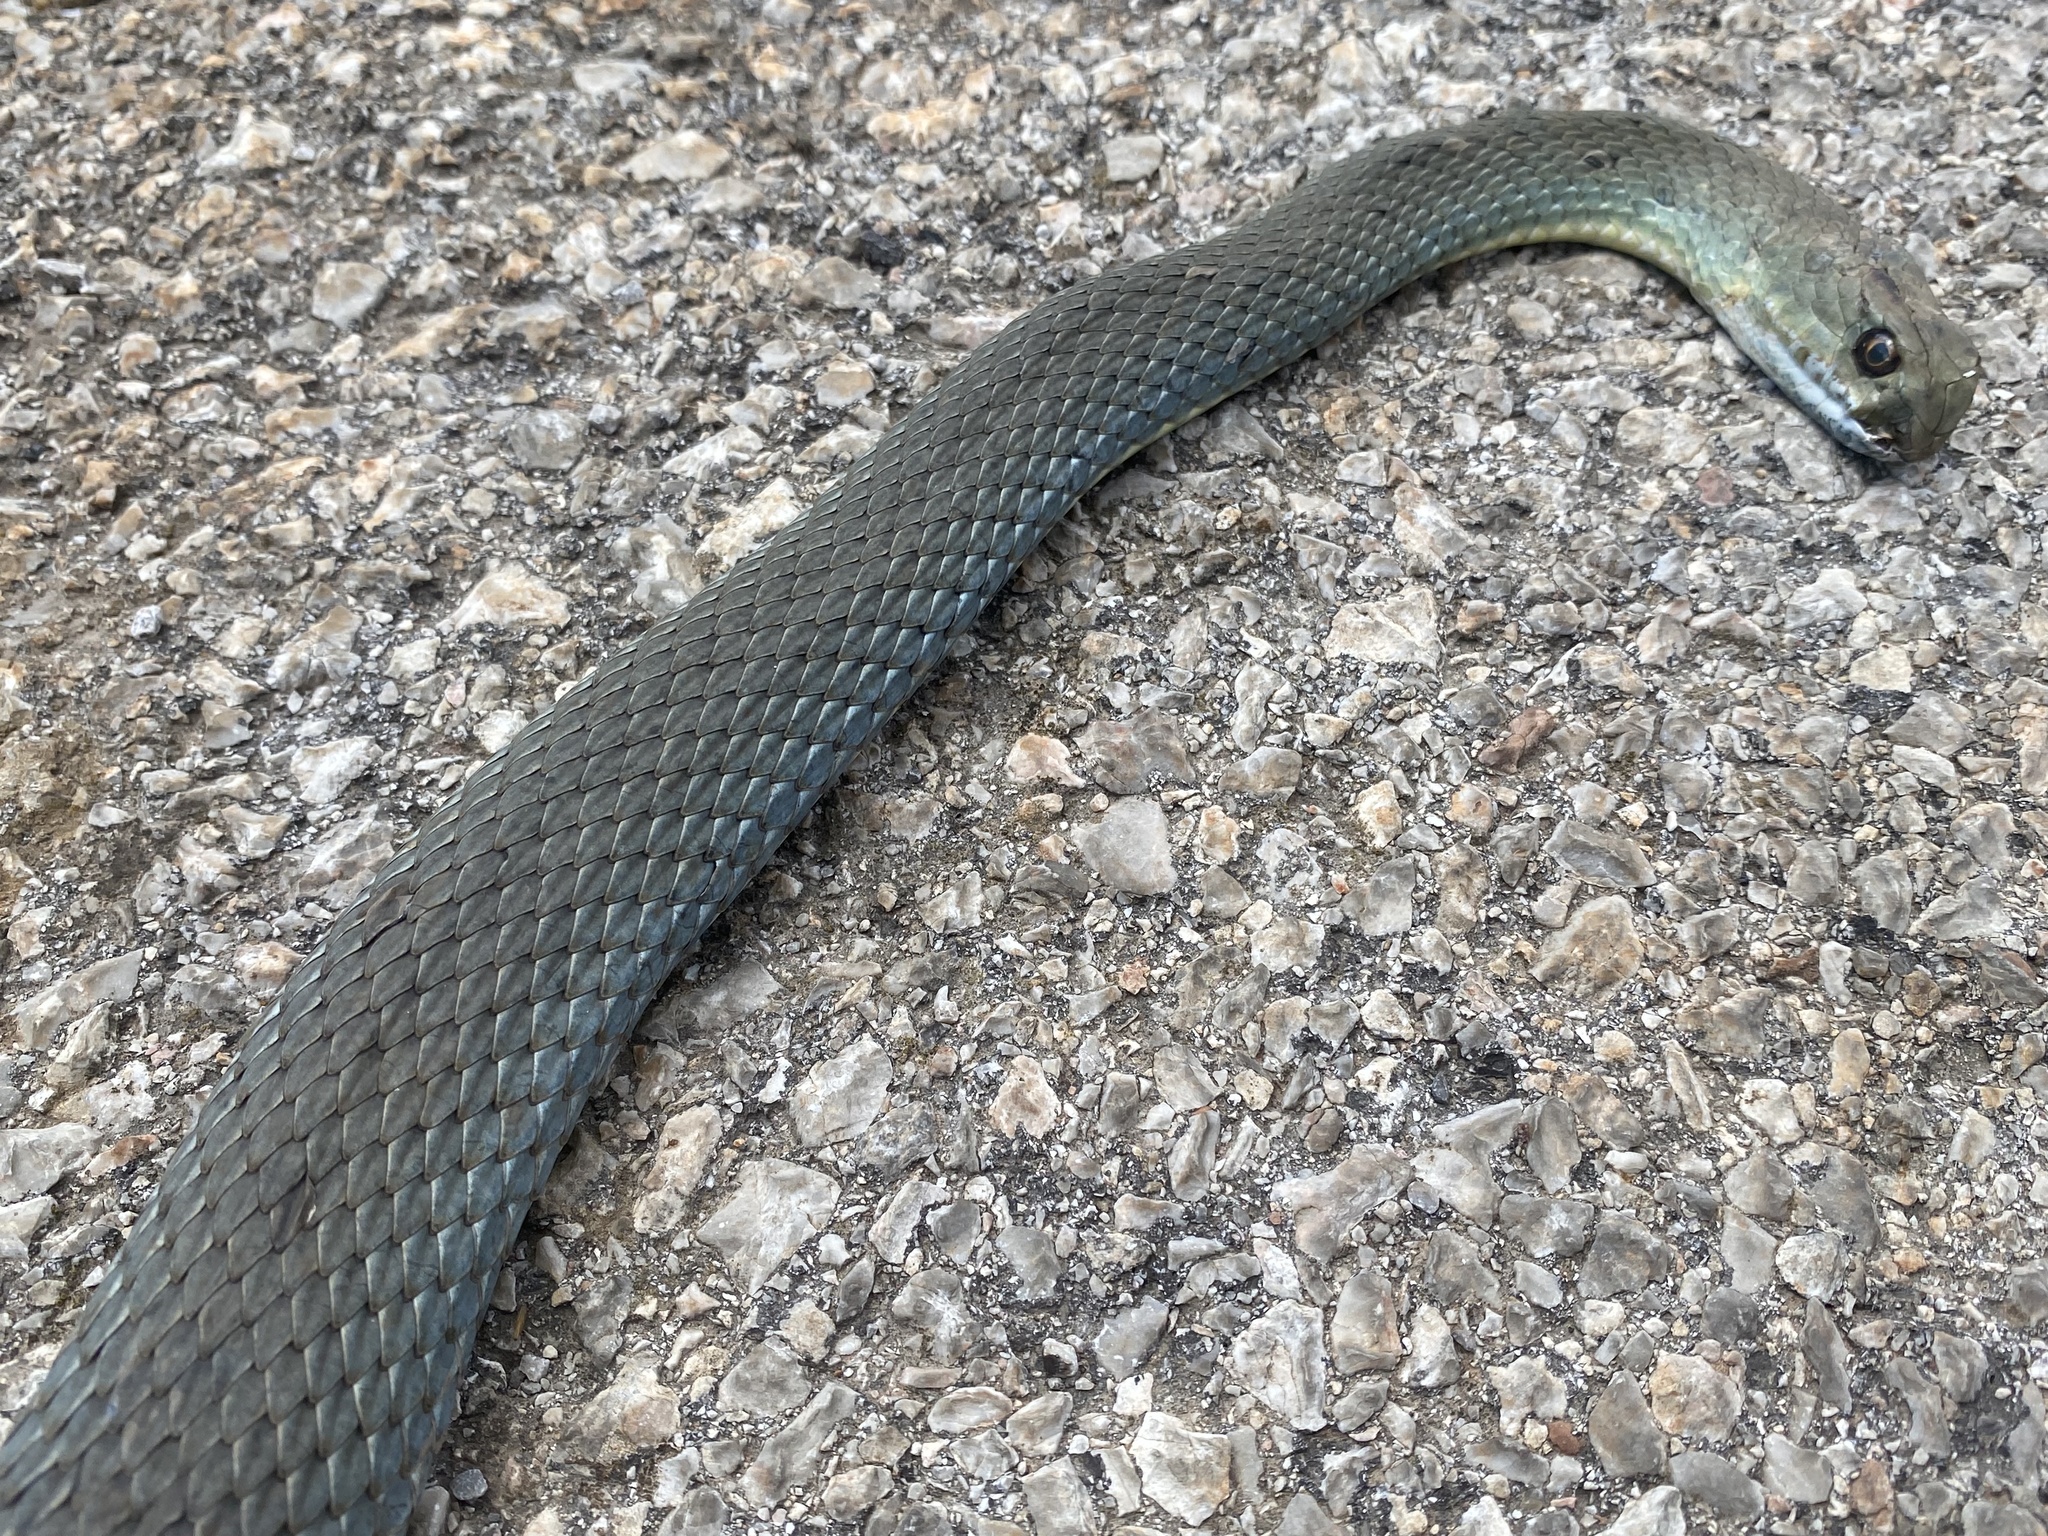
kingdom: Animalia
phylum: Chordata
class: Squamata
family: Psammophiidae
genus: Malpolon
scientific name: Malpolon insignitus
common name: Eastern montpellier snake
